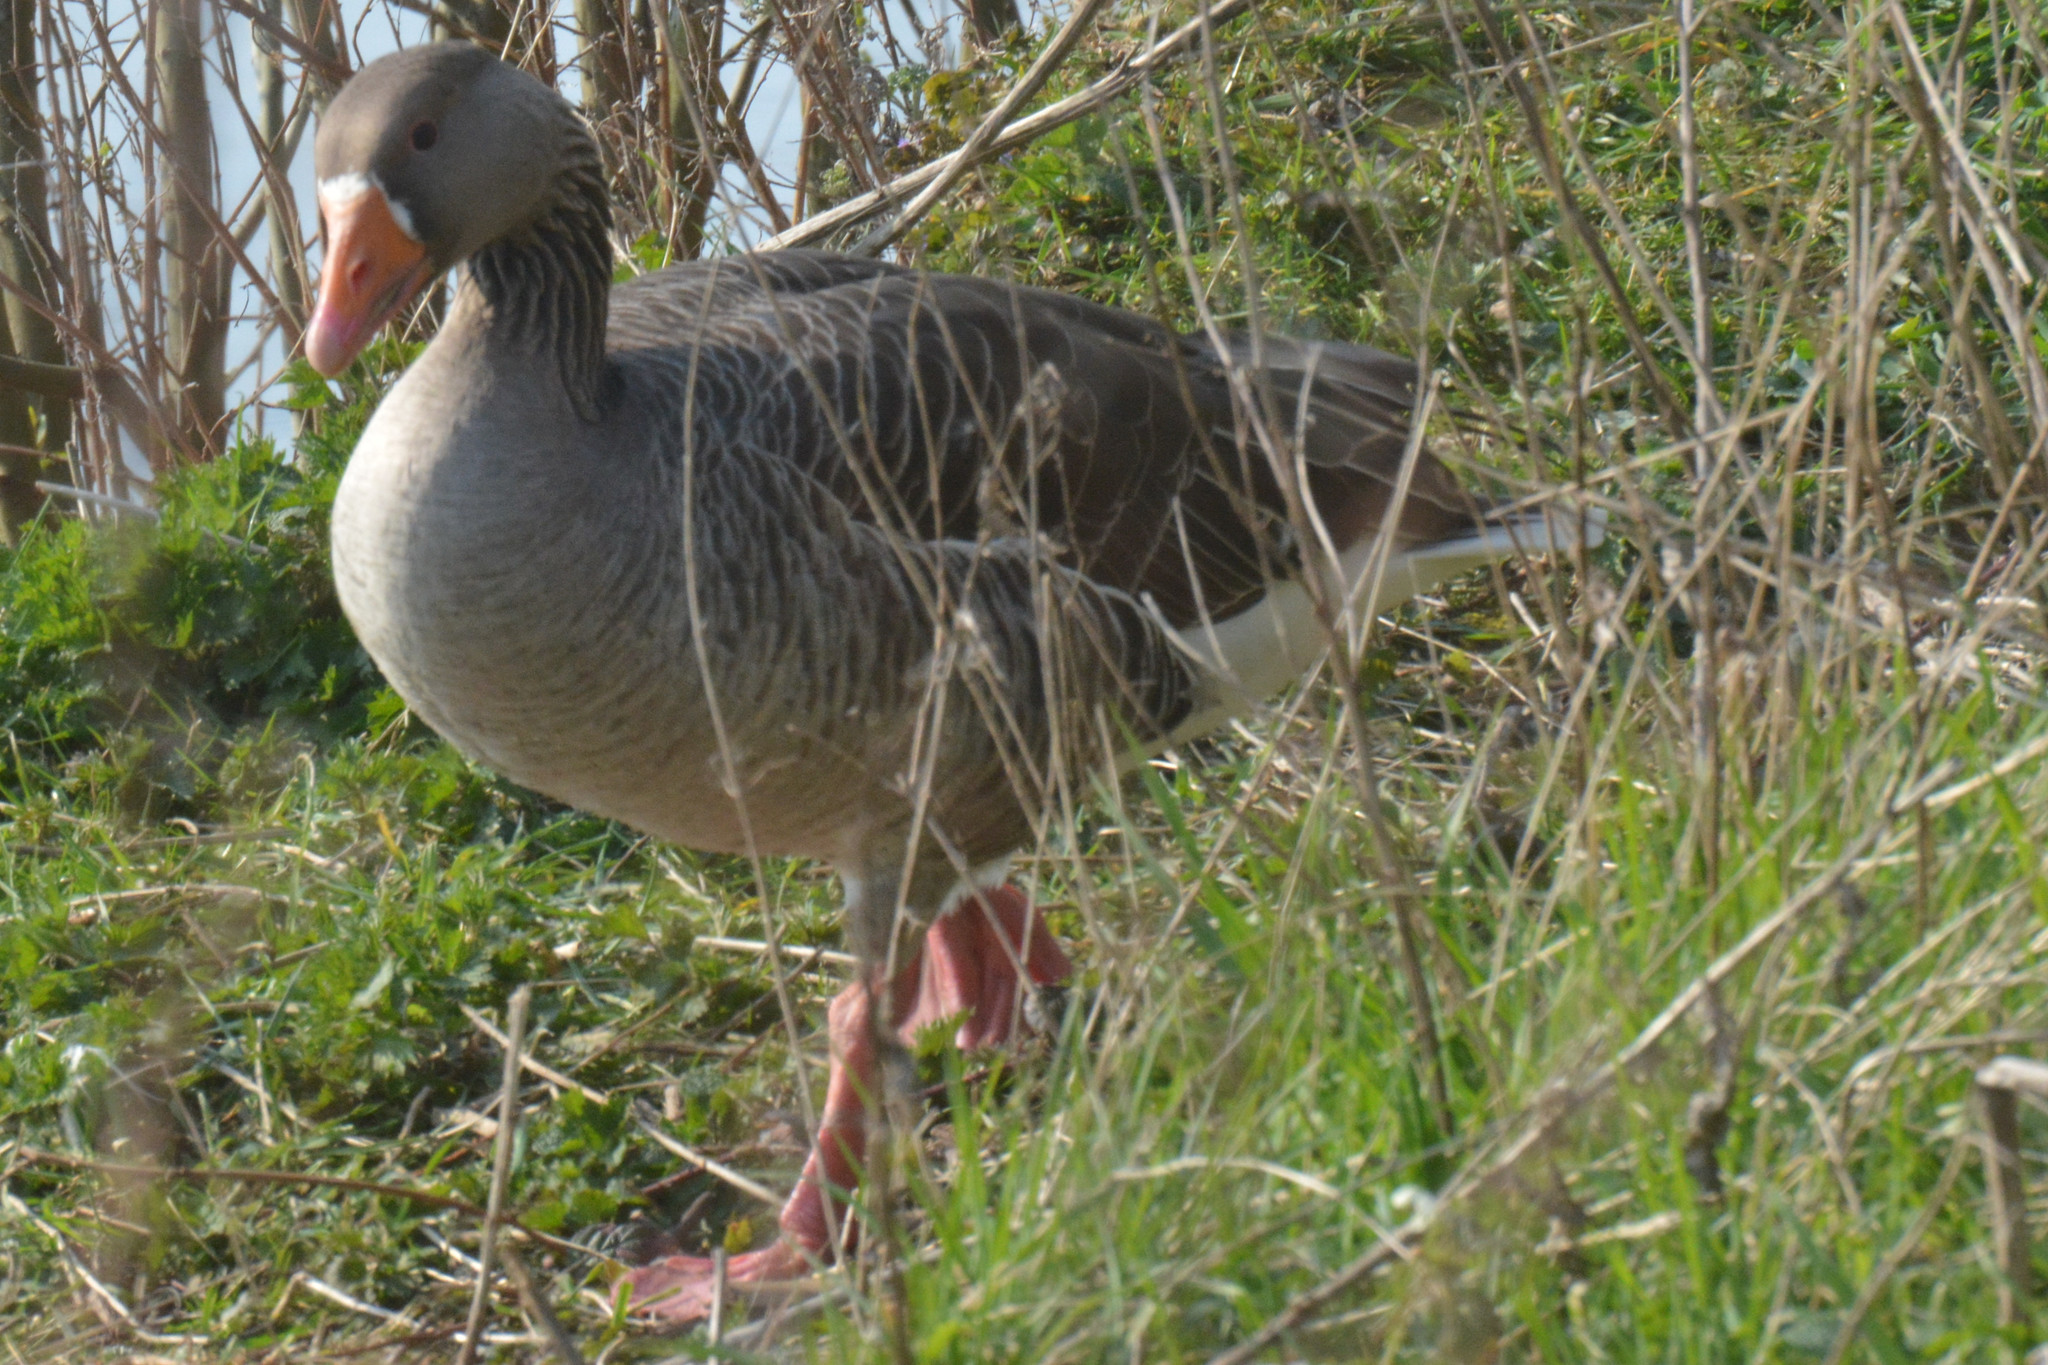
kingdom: Animalia
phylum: Chordata
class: Aves
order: Anseriformes
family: Anatidae
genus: Anser
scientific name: Anser anser
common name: Greylag goose
